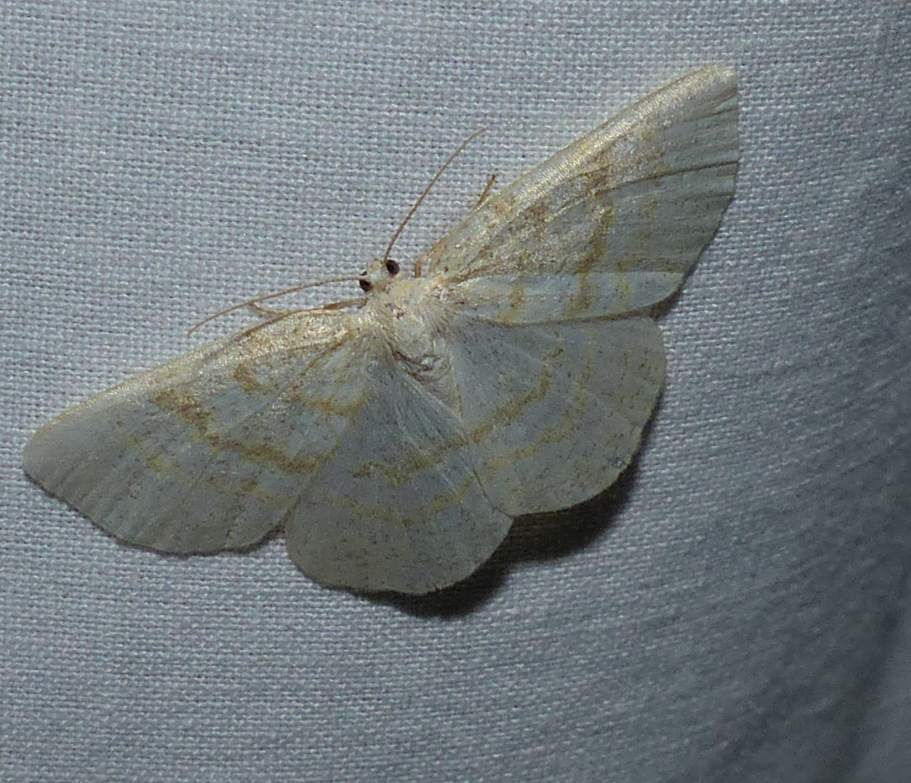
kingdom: Animalia
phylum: Arthropoda
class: Insecta
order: Lepidoptera
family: Geometridae
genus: Cabera
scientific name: Cabera erythemaria
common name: Yellow-dusted cream moth
